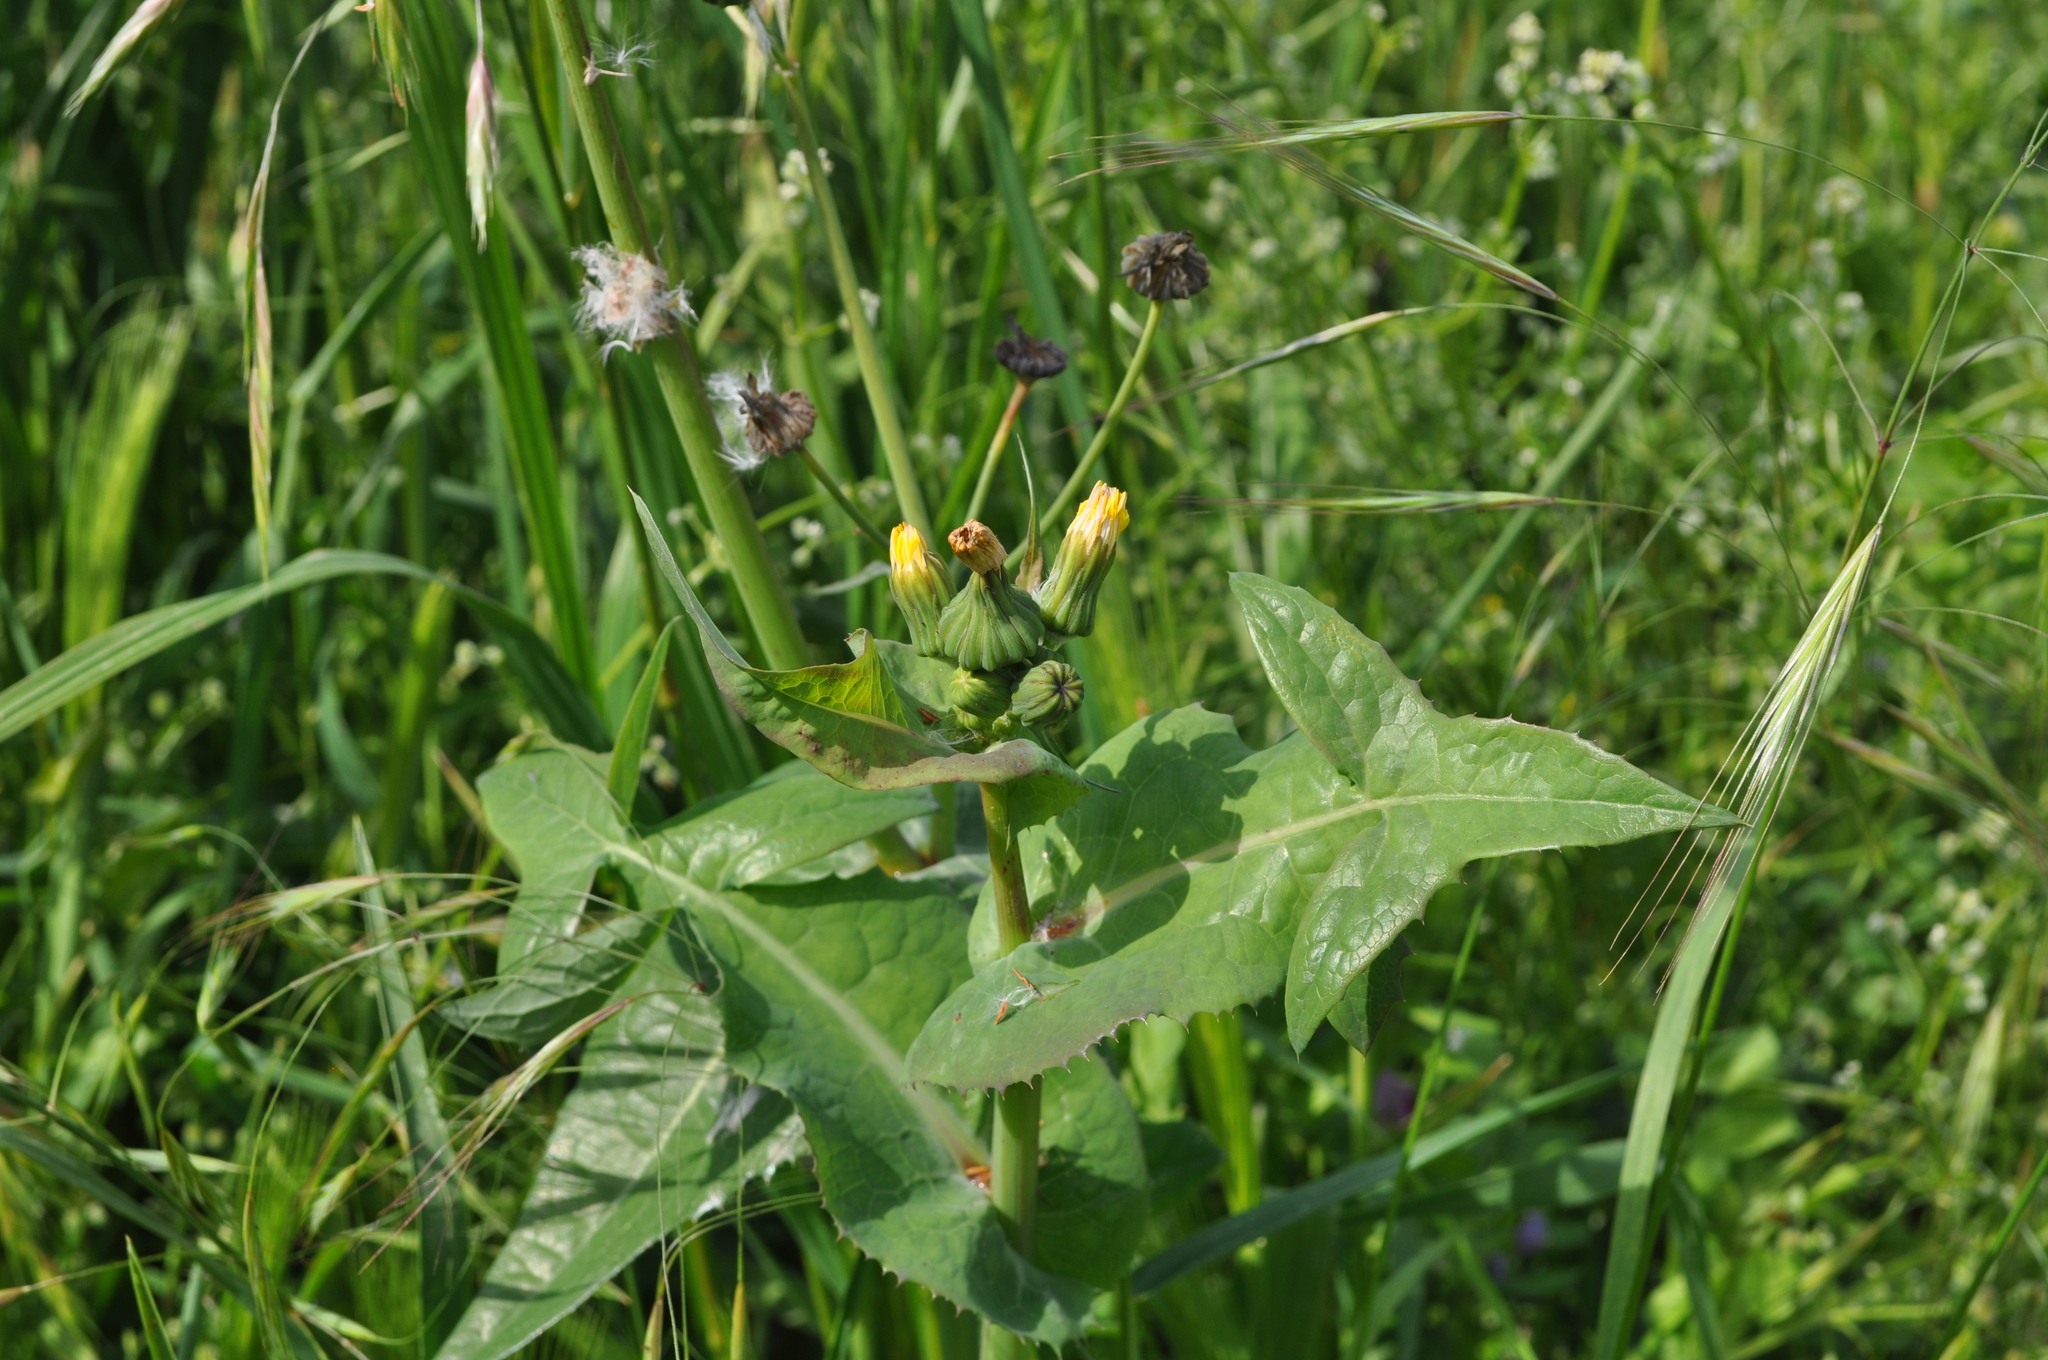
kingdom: Plantae
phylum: Tracheophyta
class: Magnoliopsida
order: Asterales
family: Asteraceae
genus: Sonchus
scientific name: Sonchus oleraceus
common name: Common sowthistle
